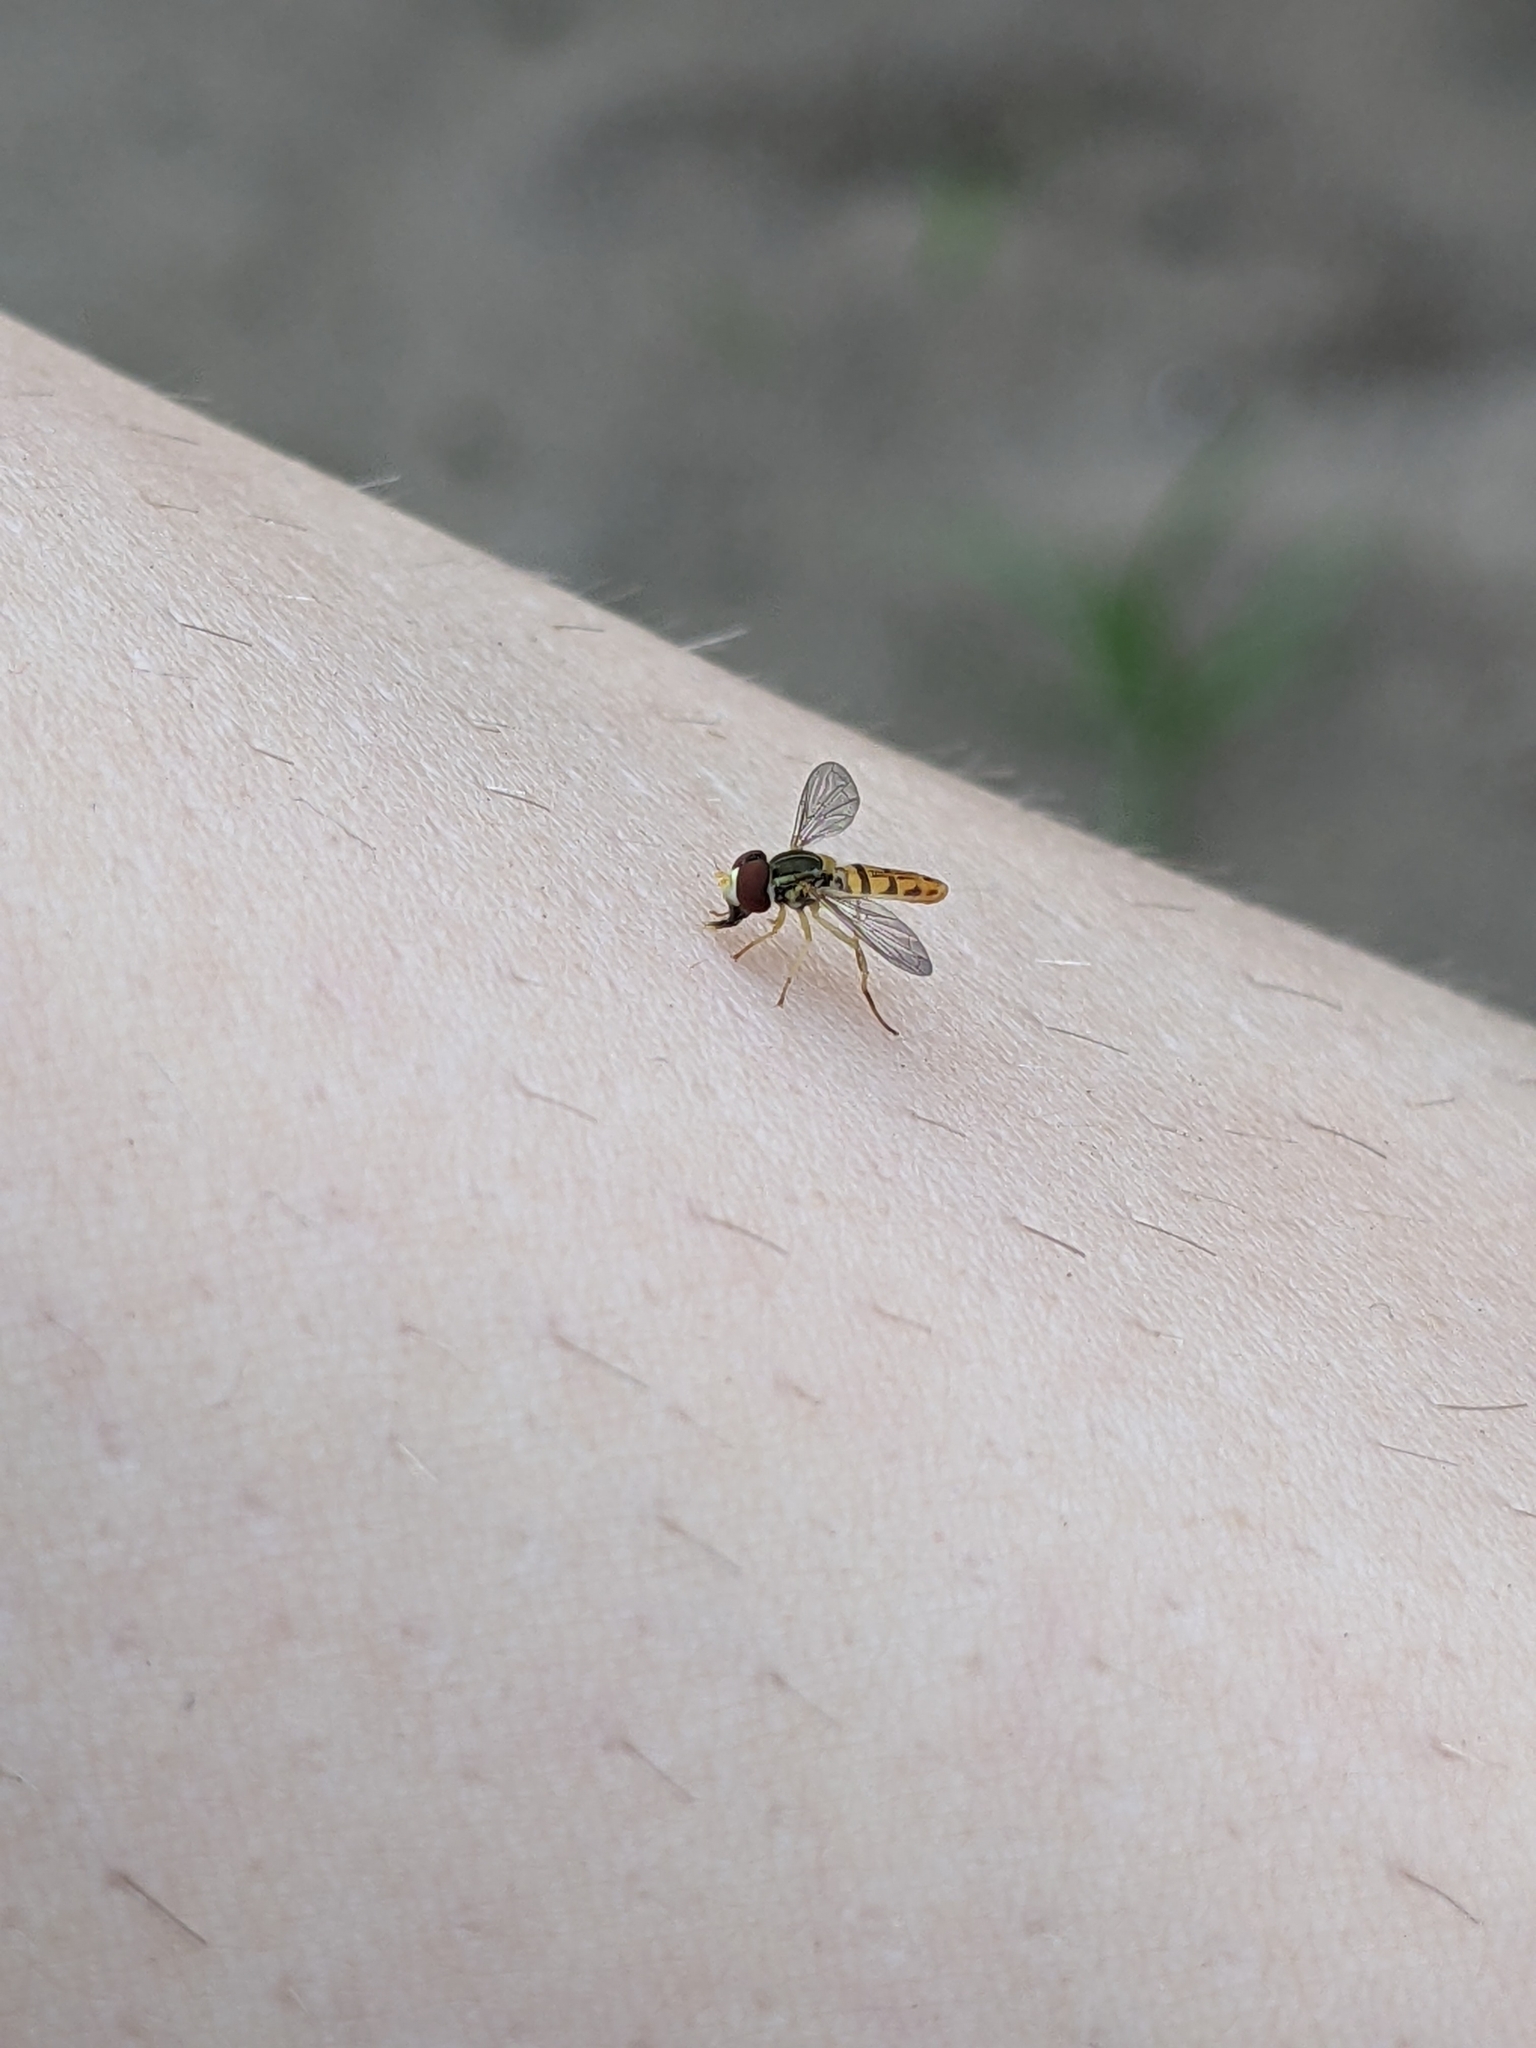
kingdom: Animalia
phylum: Arthropoda
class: Insecta
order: Diptera
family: Syrphidae
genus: Toxomerus
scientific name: Toxomerus marginatus
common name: Syrphid fly
